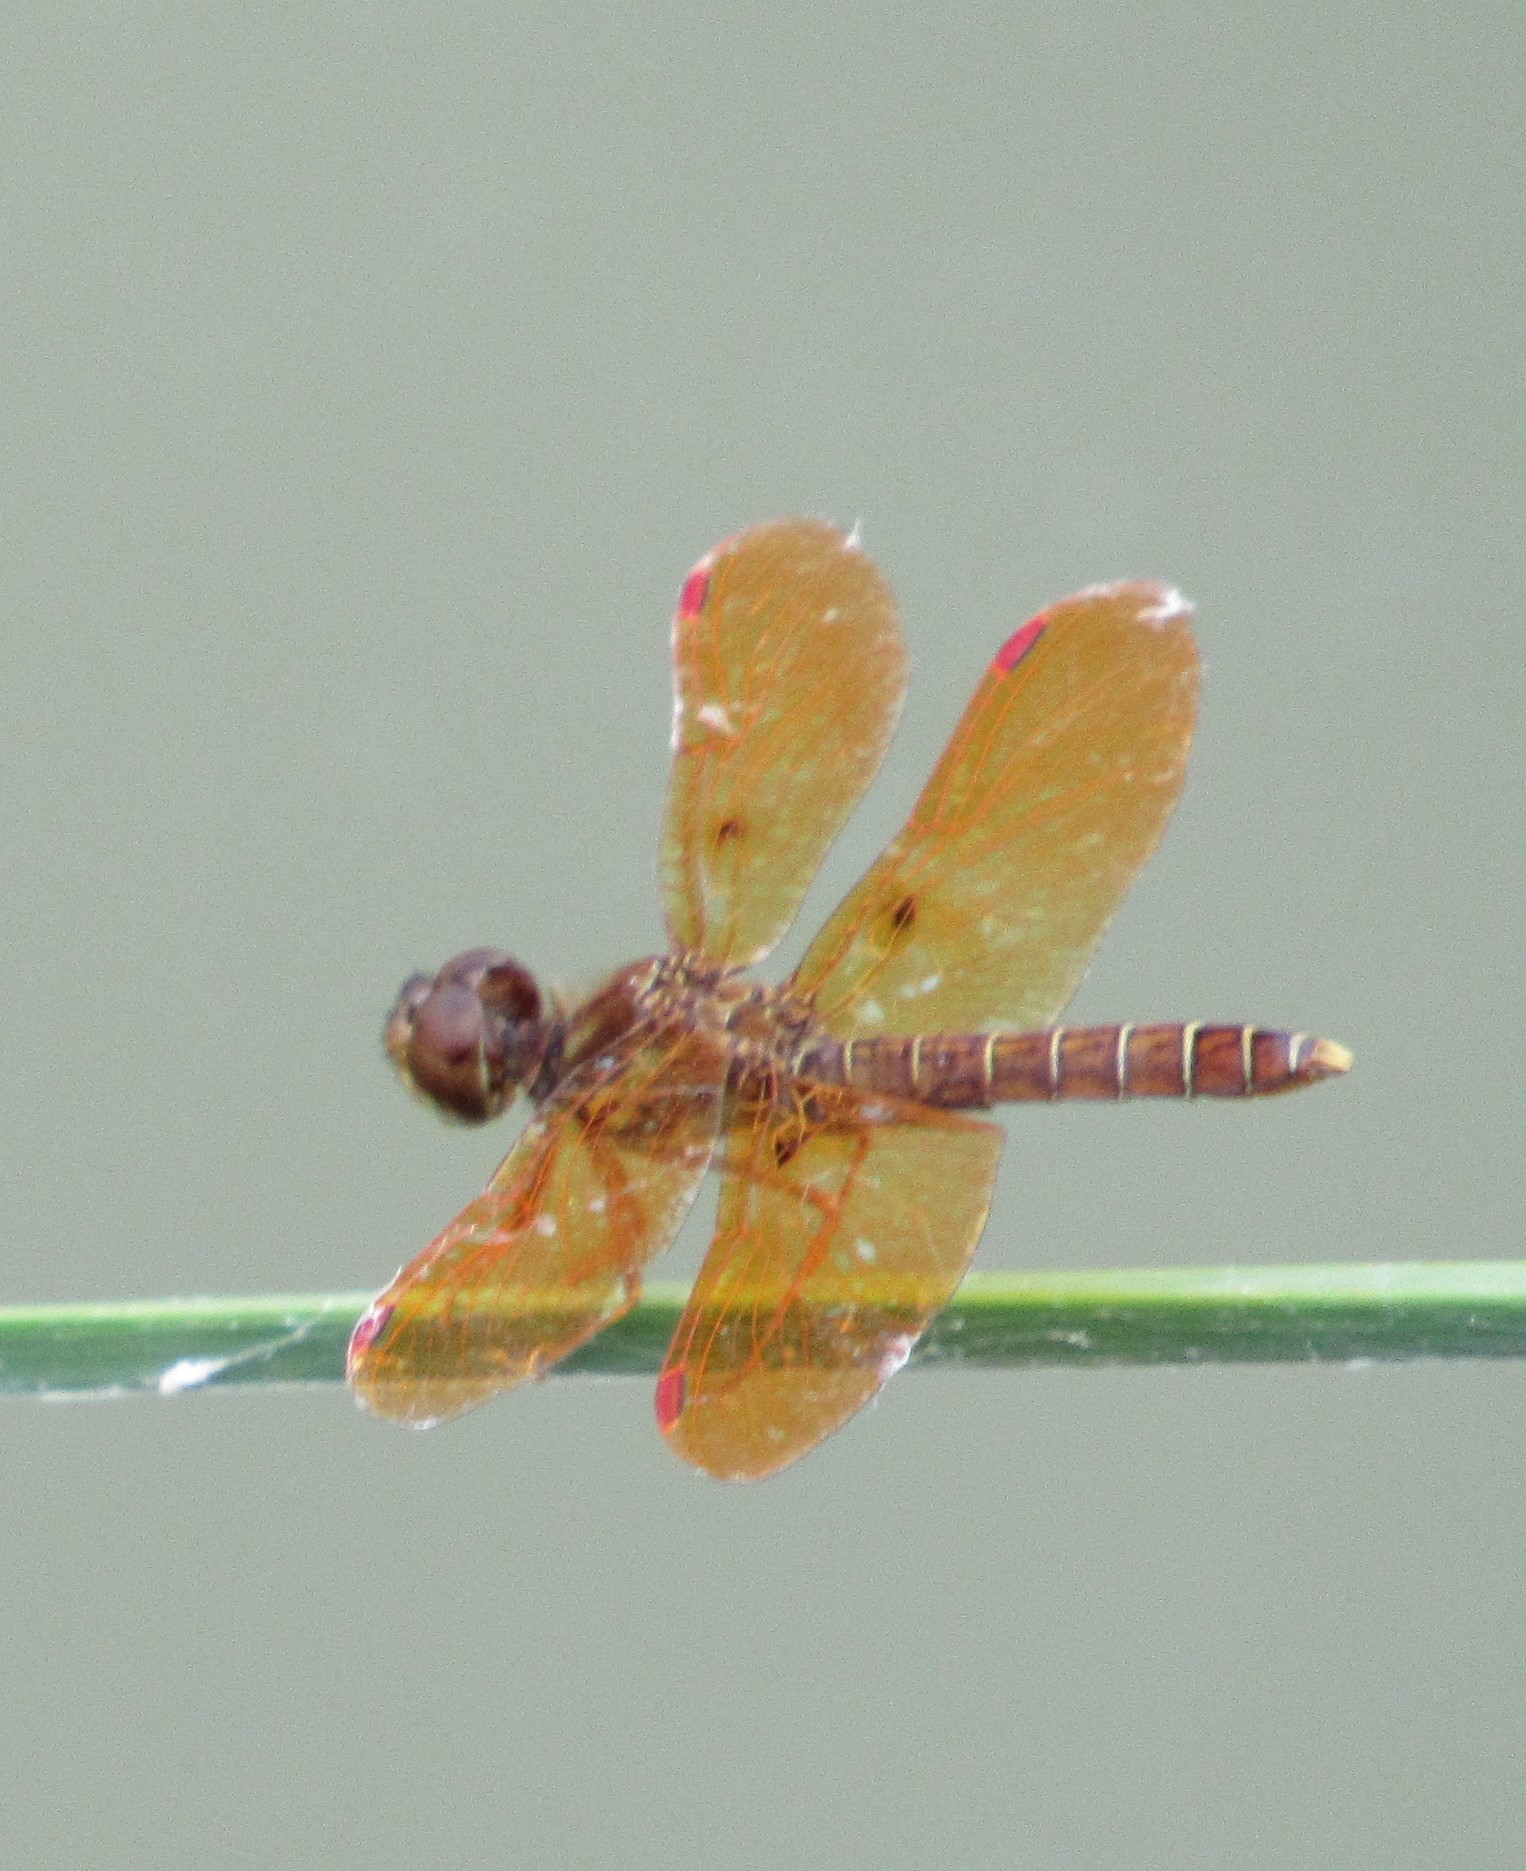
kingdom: Animalia
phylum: Arthropoda
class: Insecta
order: Odonata
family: Libellulidae
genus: Perithemis
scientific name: Perithemis tenera
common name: Eastern amberwing
